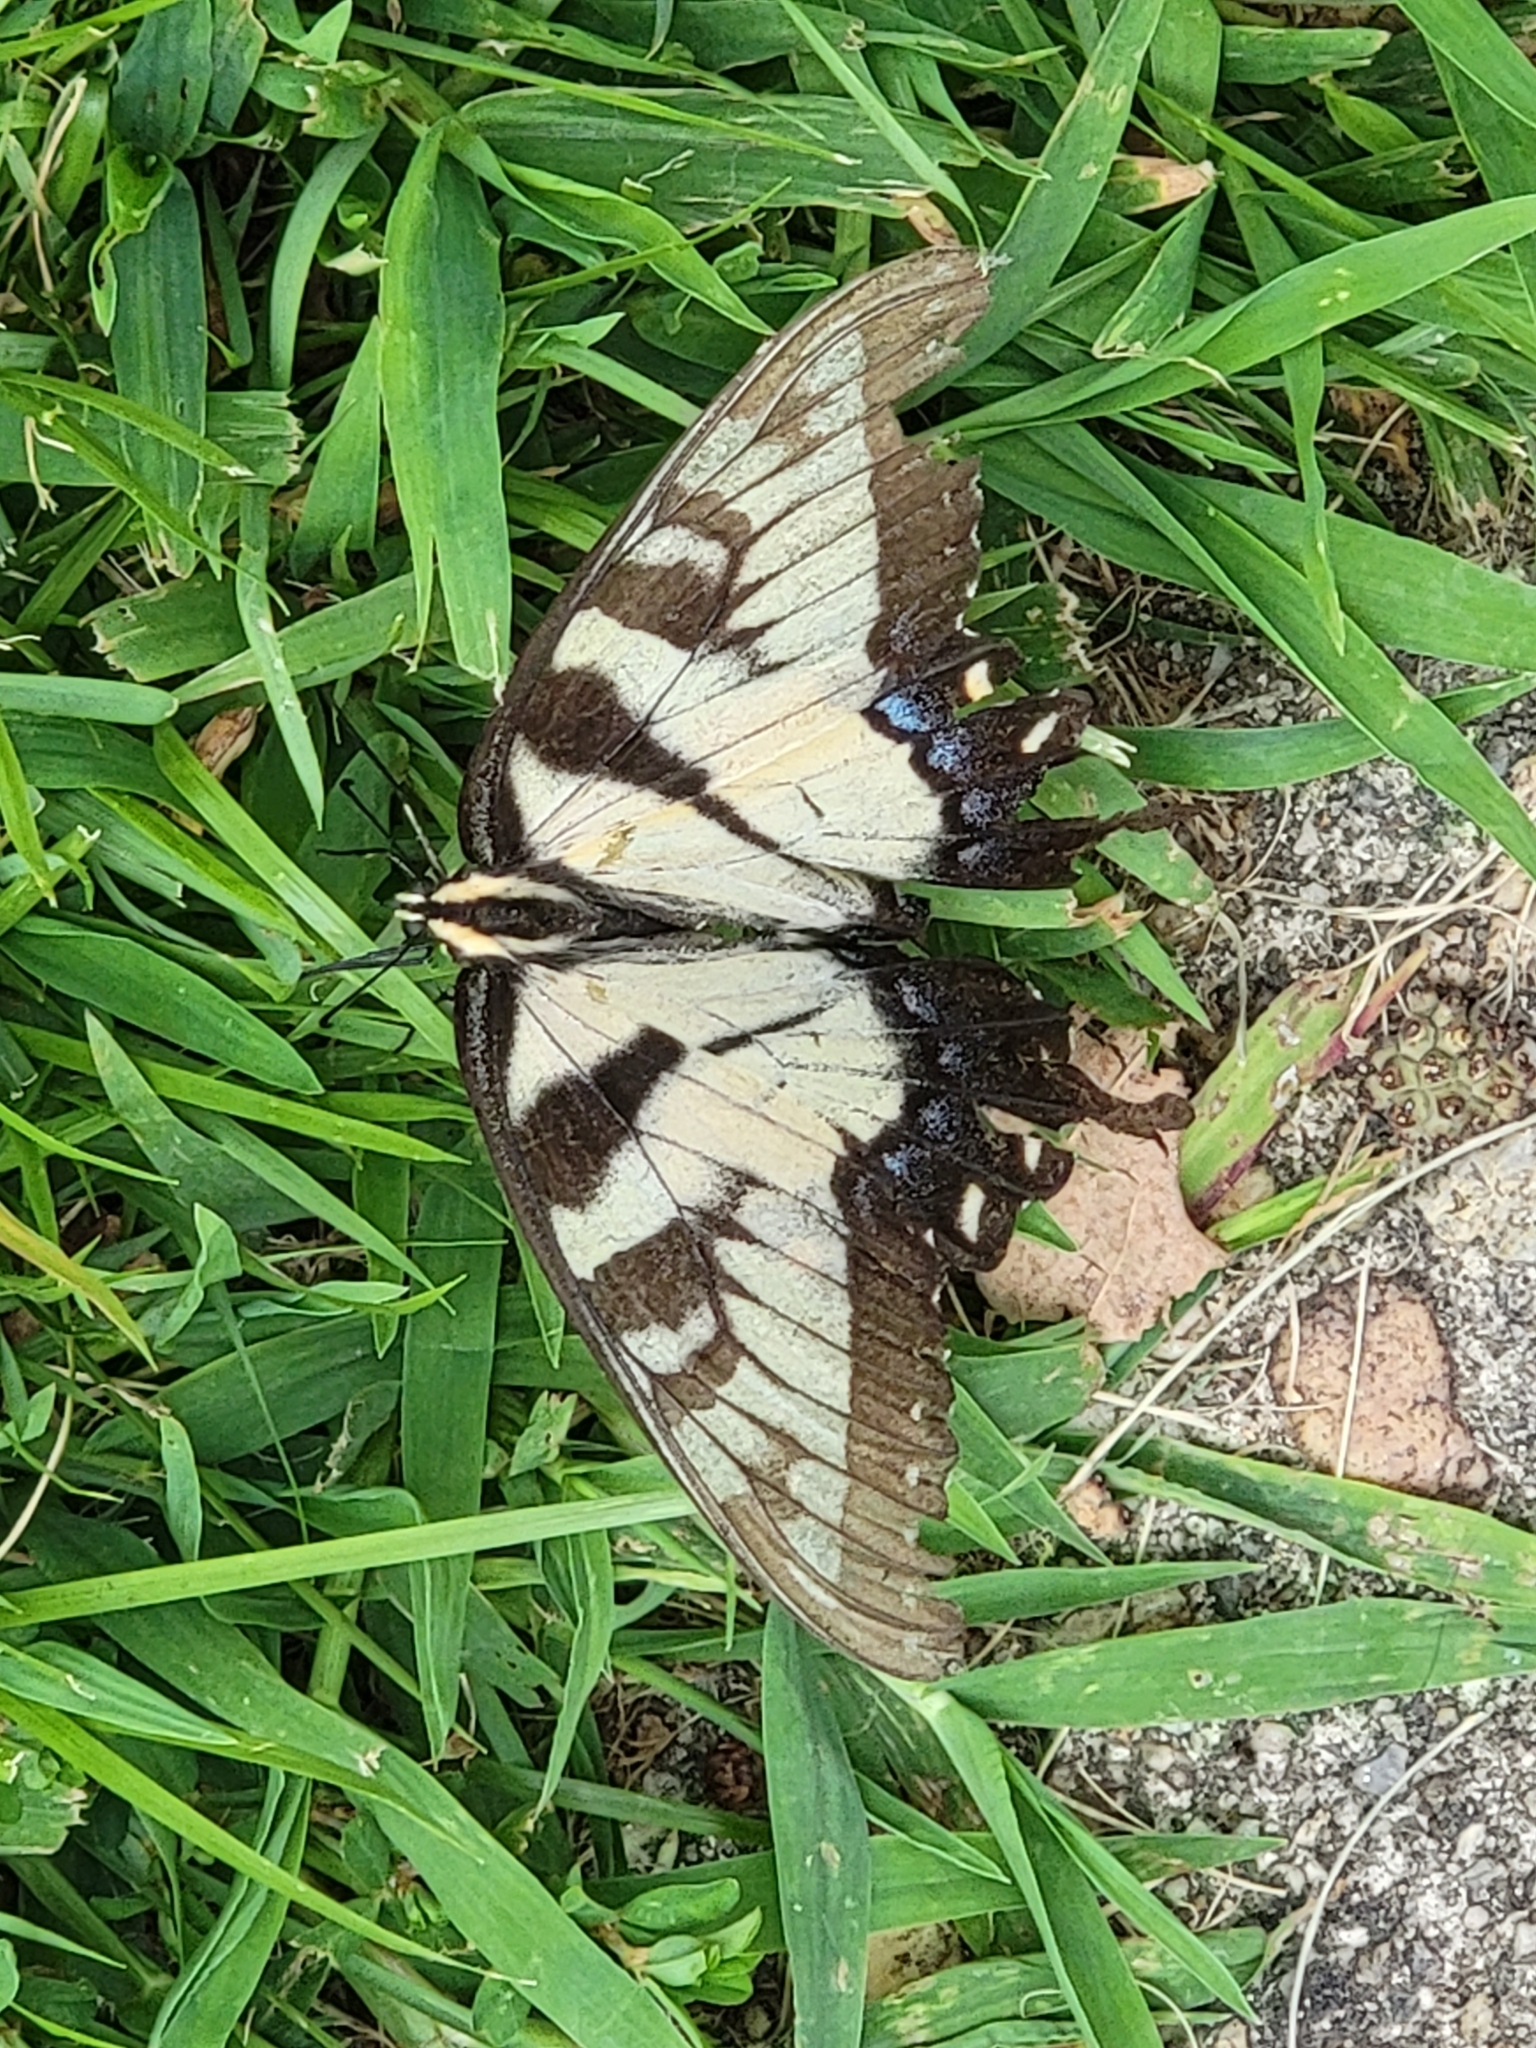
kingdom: Animalia
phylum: Arthropoda
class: Insecta
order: Lepidoptera
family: Papilionidae
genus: Papilio
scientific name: Papilio glaucus
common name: Tiger swallowtail
